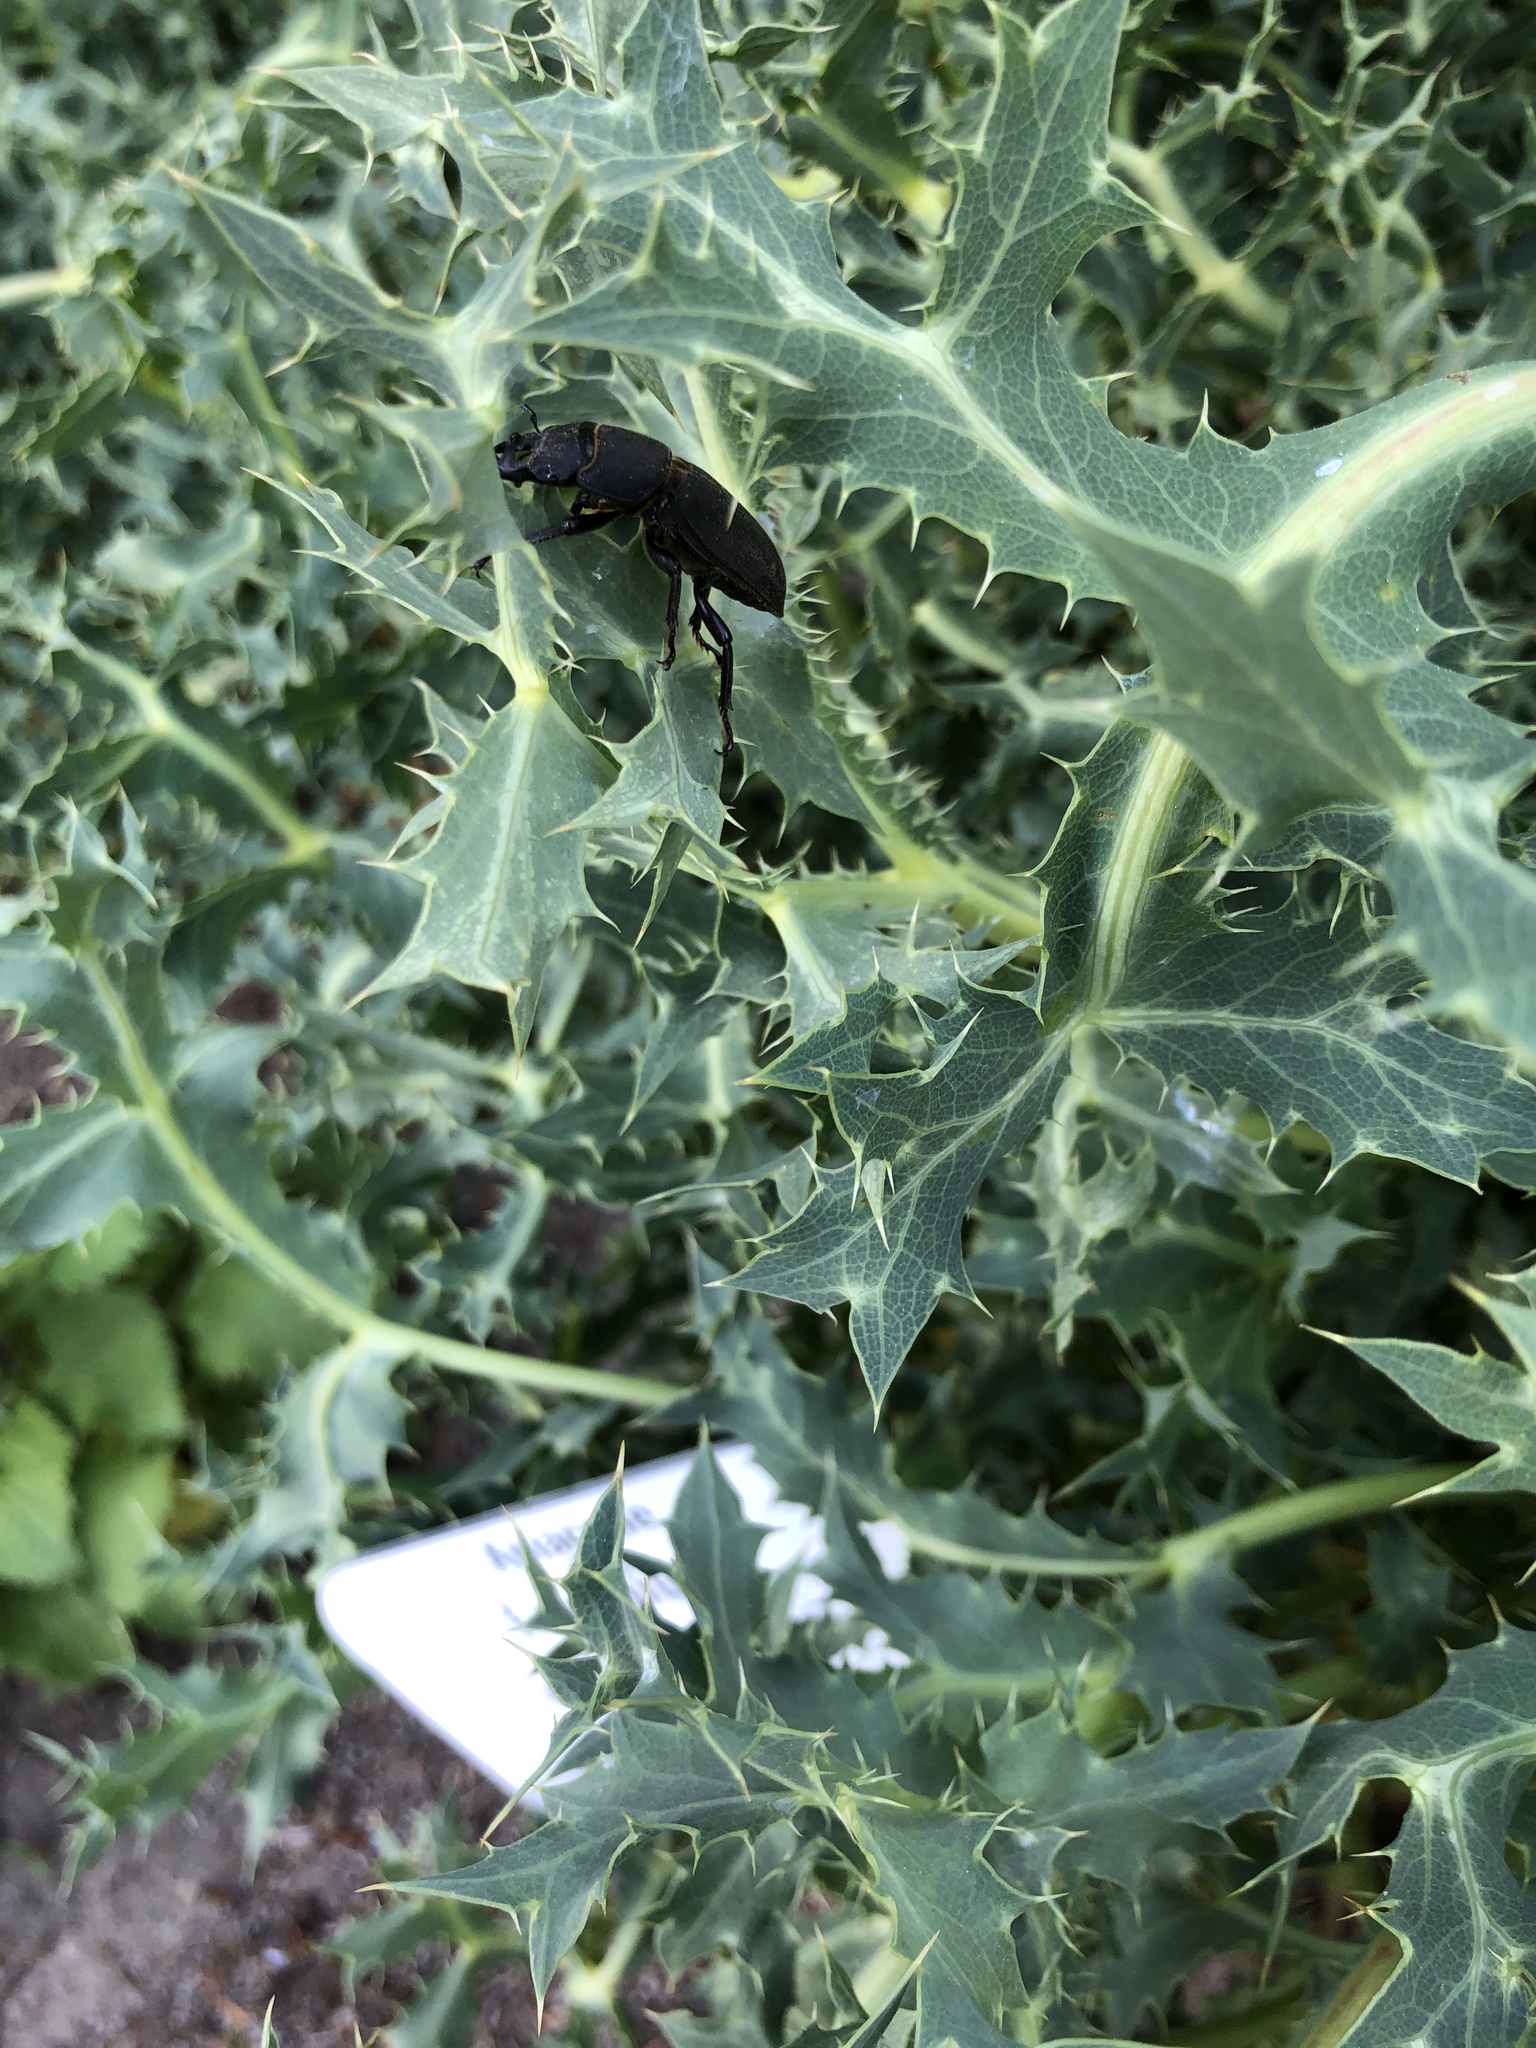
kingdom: Animalia
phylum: Arthropoda
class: Insecta
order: Coleoptera
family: Lucanidae
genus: Dorcus
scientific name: Dorcus parallelipipedus
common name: Lesser stag beetle
